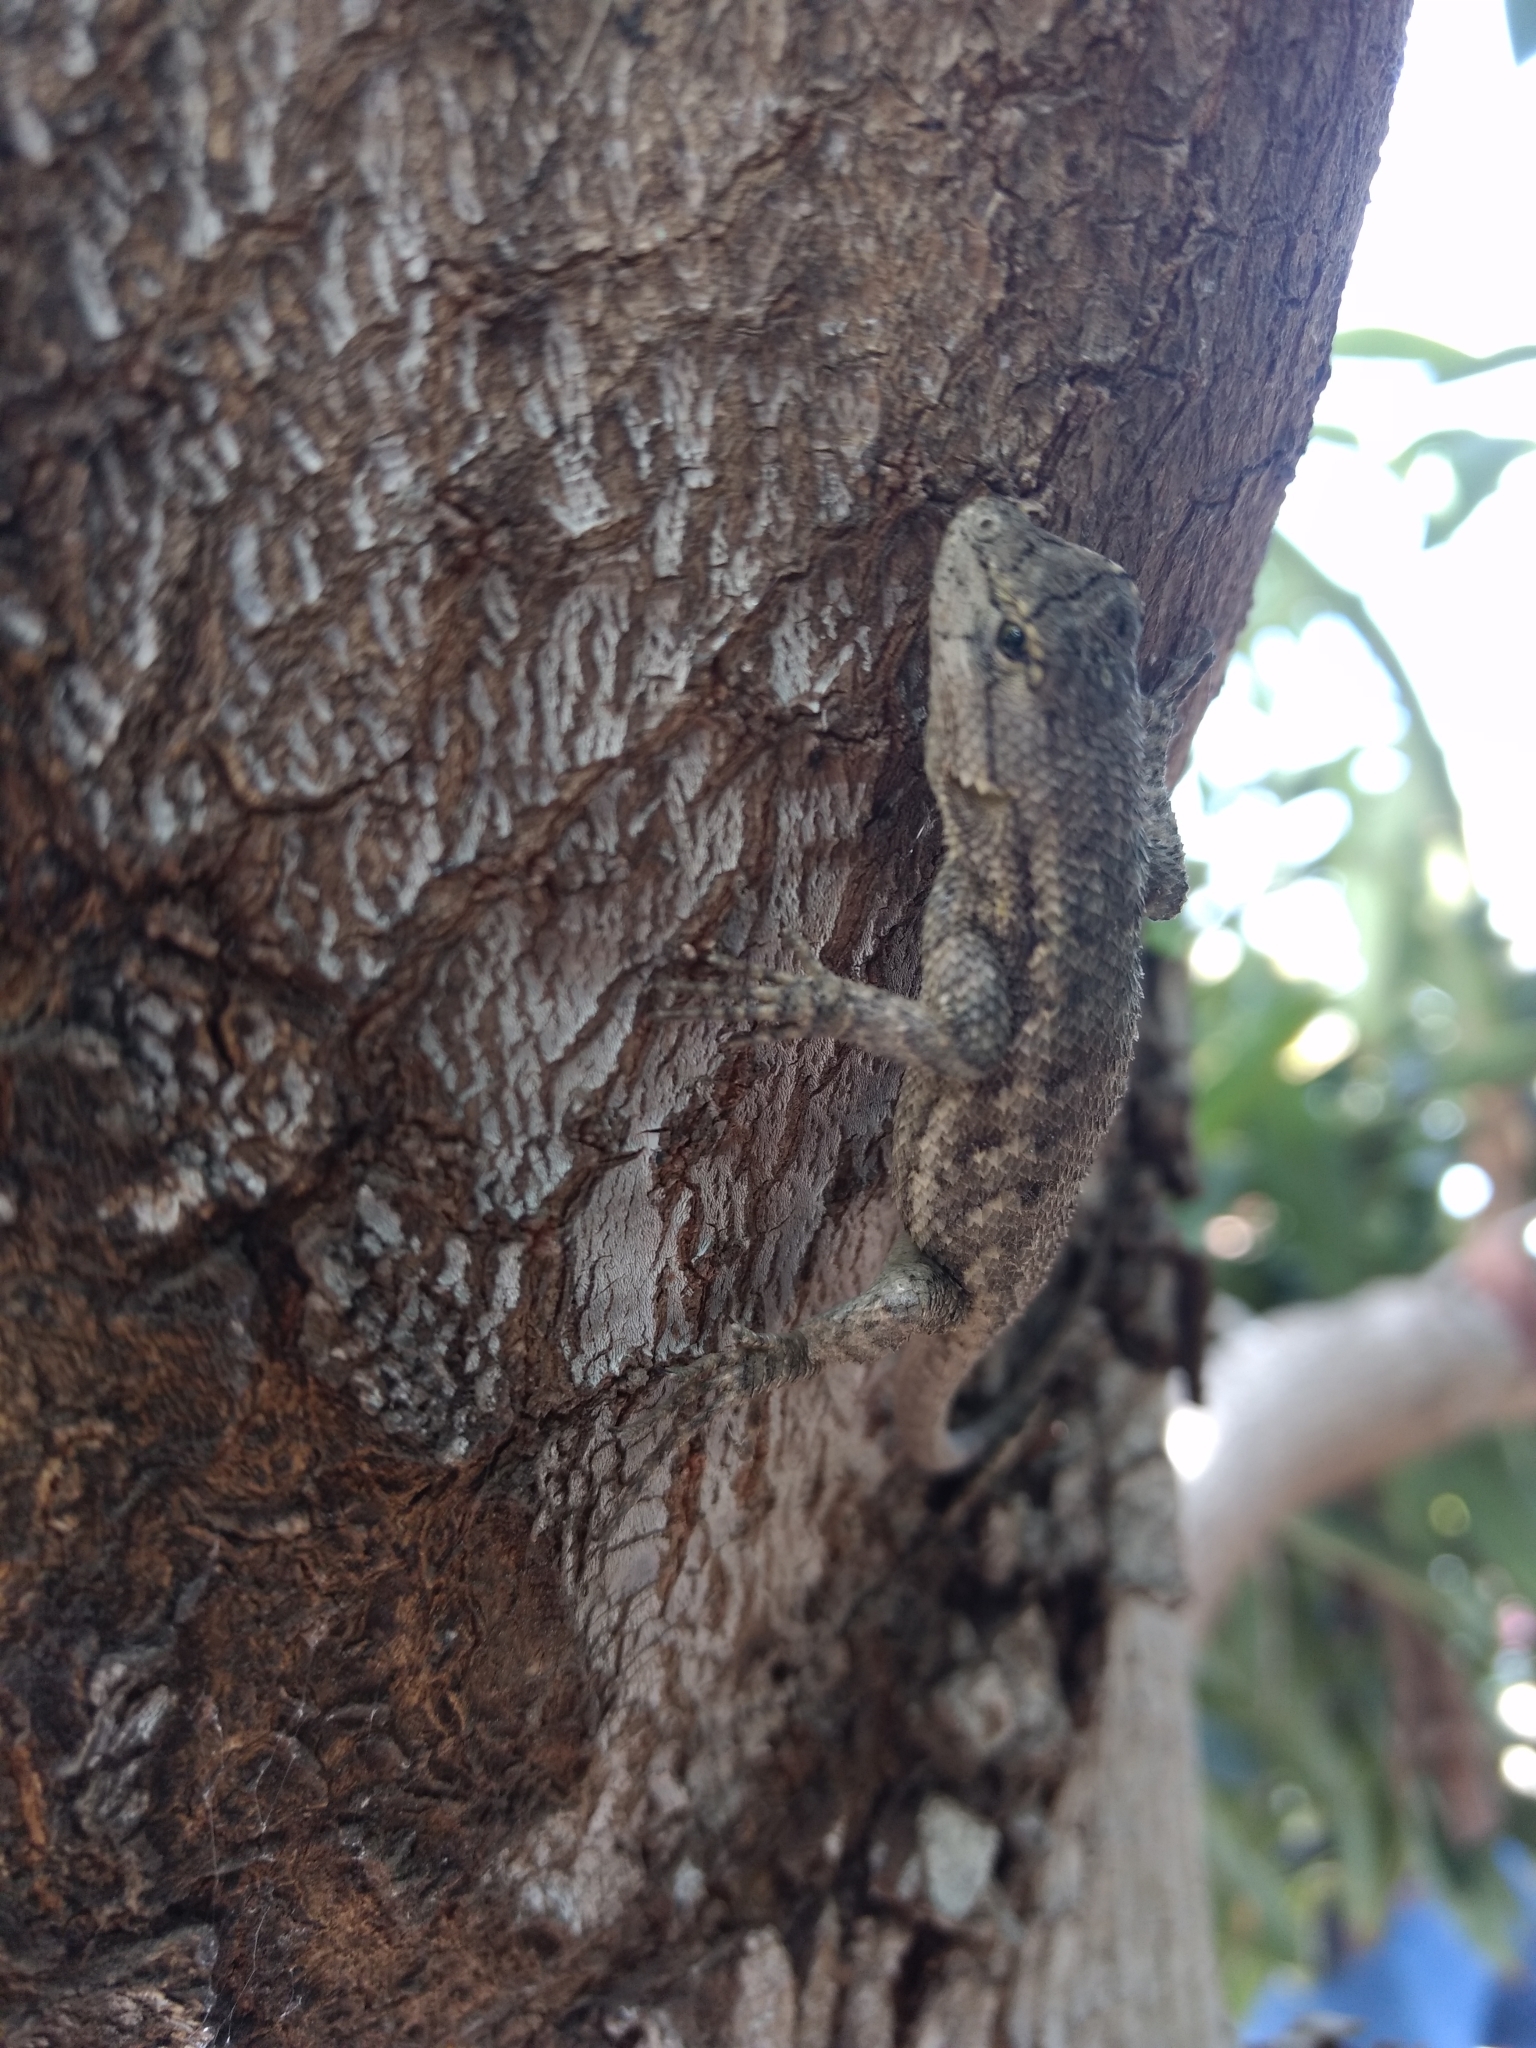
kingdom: Animalia
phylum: Chordata
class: Squamata
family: Phrynosomatidae
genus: Sceloporus
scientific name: Sceloporus occidentalis
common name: Western fence lizard
